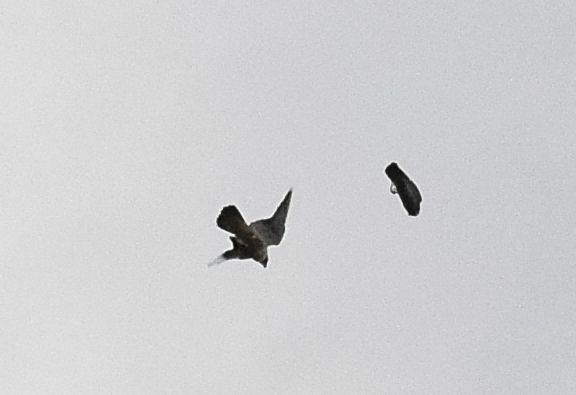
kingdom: Animalia
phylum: Chordata
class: Aves
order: Falconiformes
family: Falconidae
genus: Falco
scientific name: Falco peregrinus
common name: Peregrine falcon
